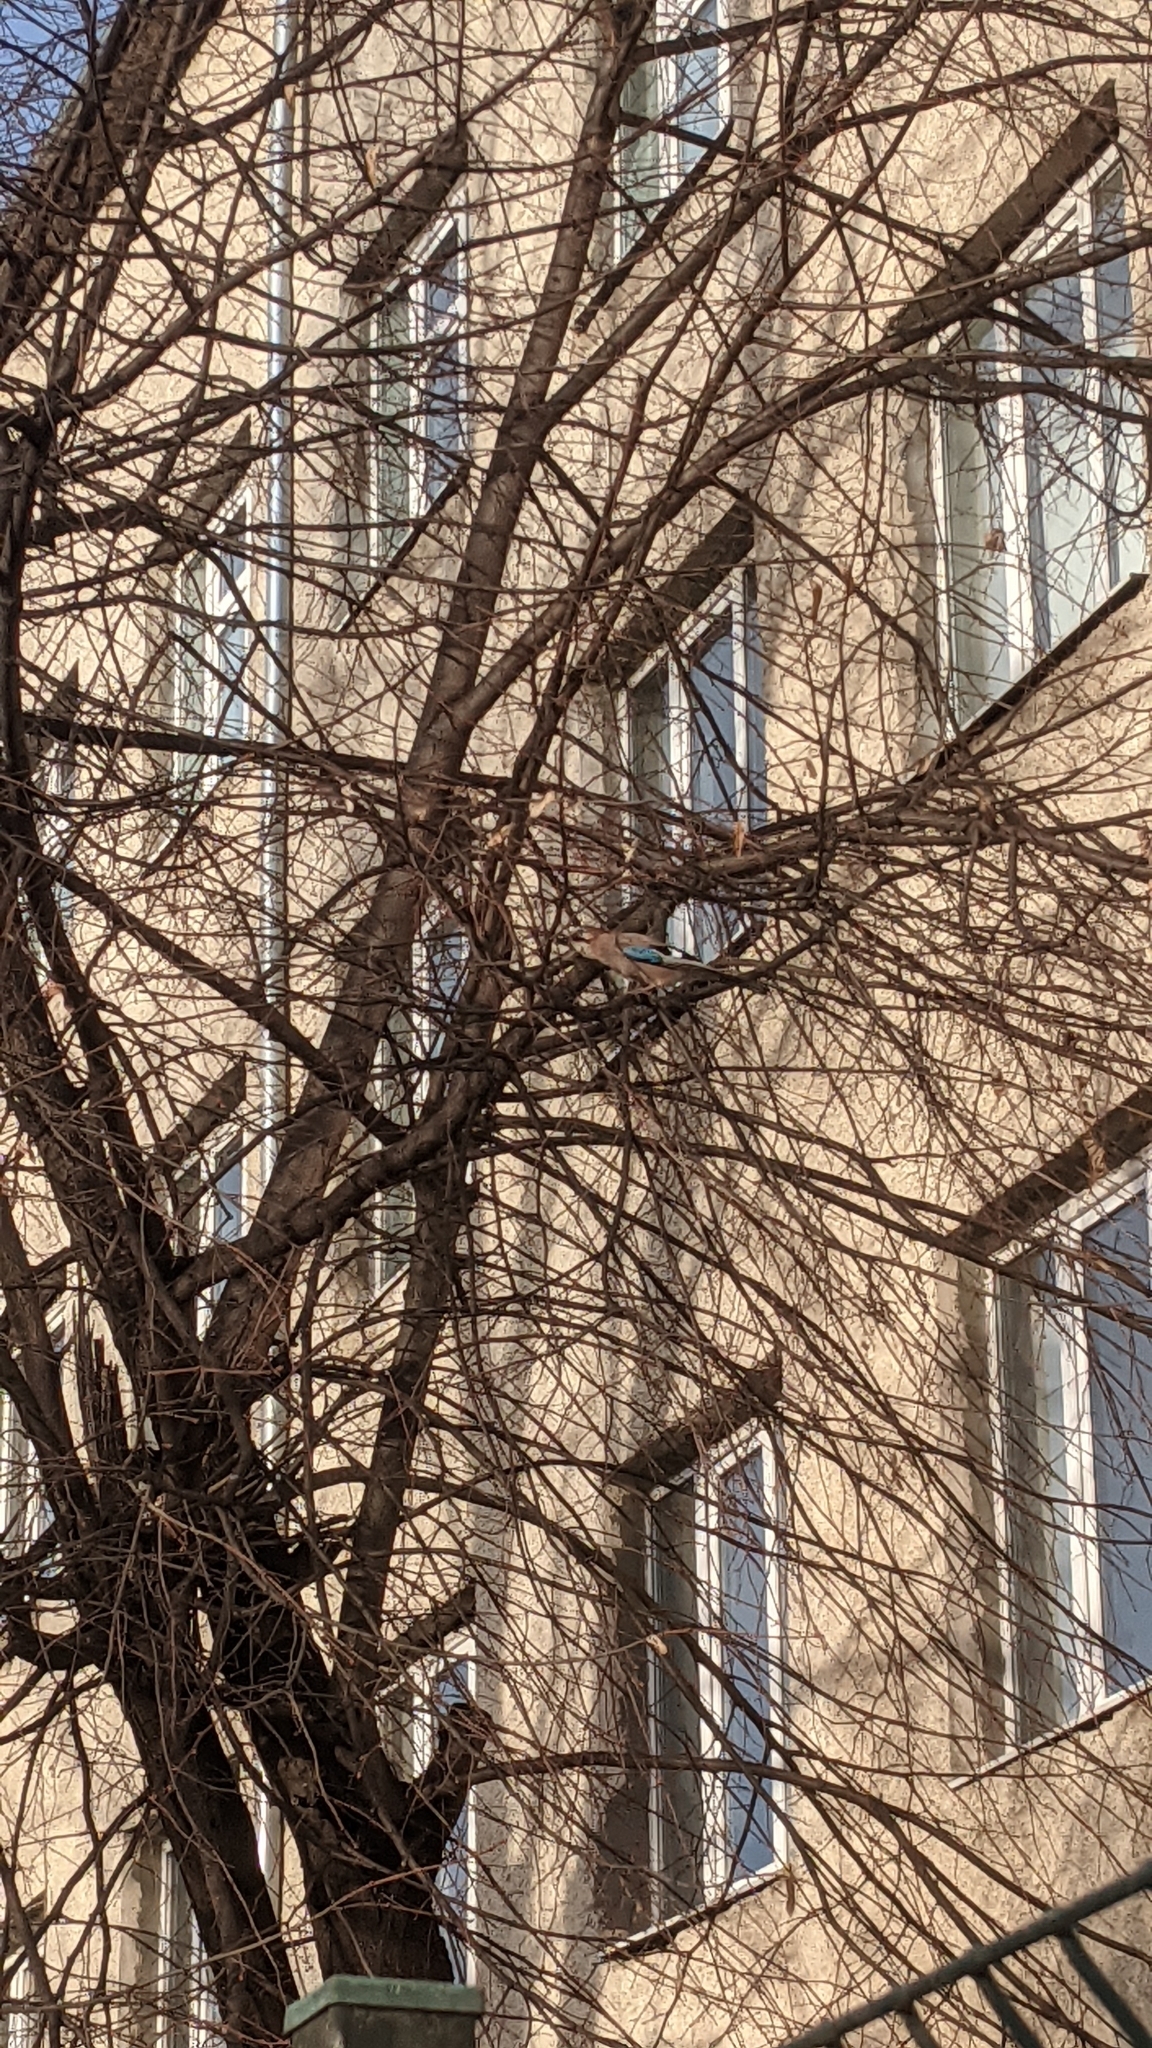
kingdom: Animalia
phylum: Chordata
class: Aves
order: Passeriformes
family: Corvidae
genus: Garrulus
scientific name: Garrulus glandarius
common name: Eurasian jay
